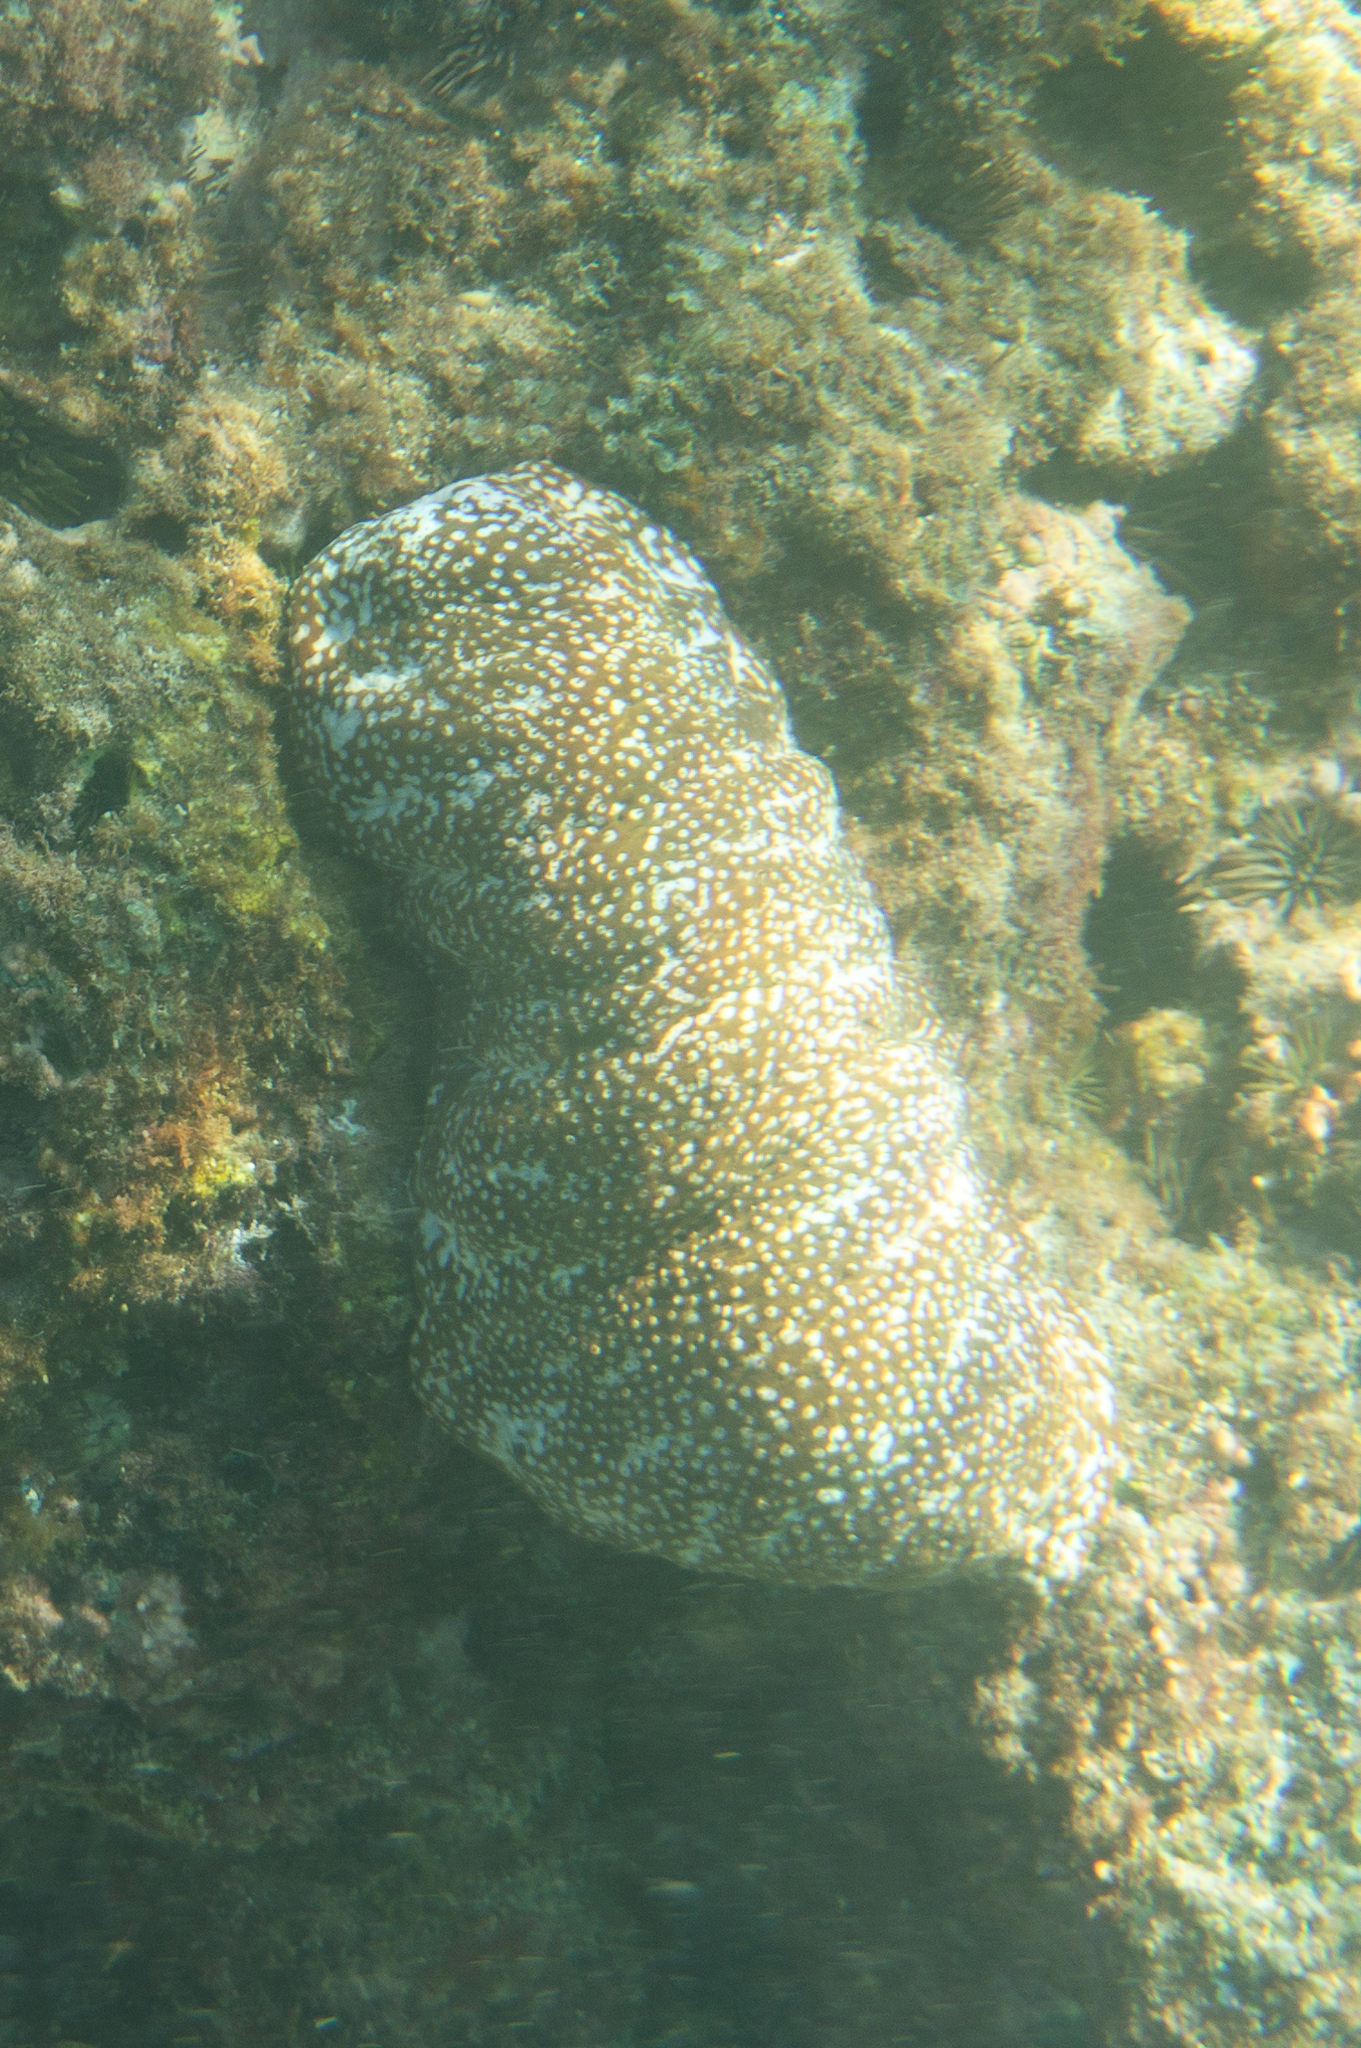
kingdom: Animalia
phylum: Echinodermata
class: Holothuroidea
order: Holothuriida
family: Holothuriidae
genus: Actinopyga
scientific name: Actinopyga varians
